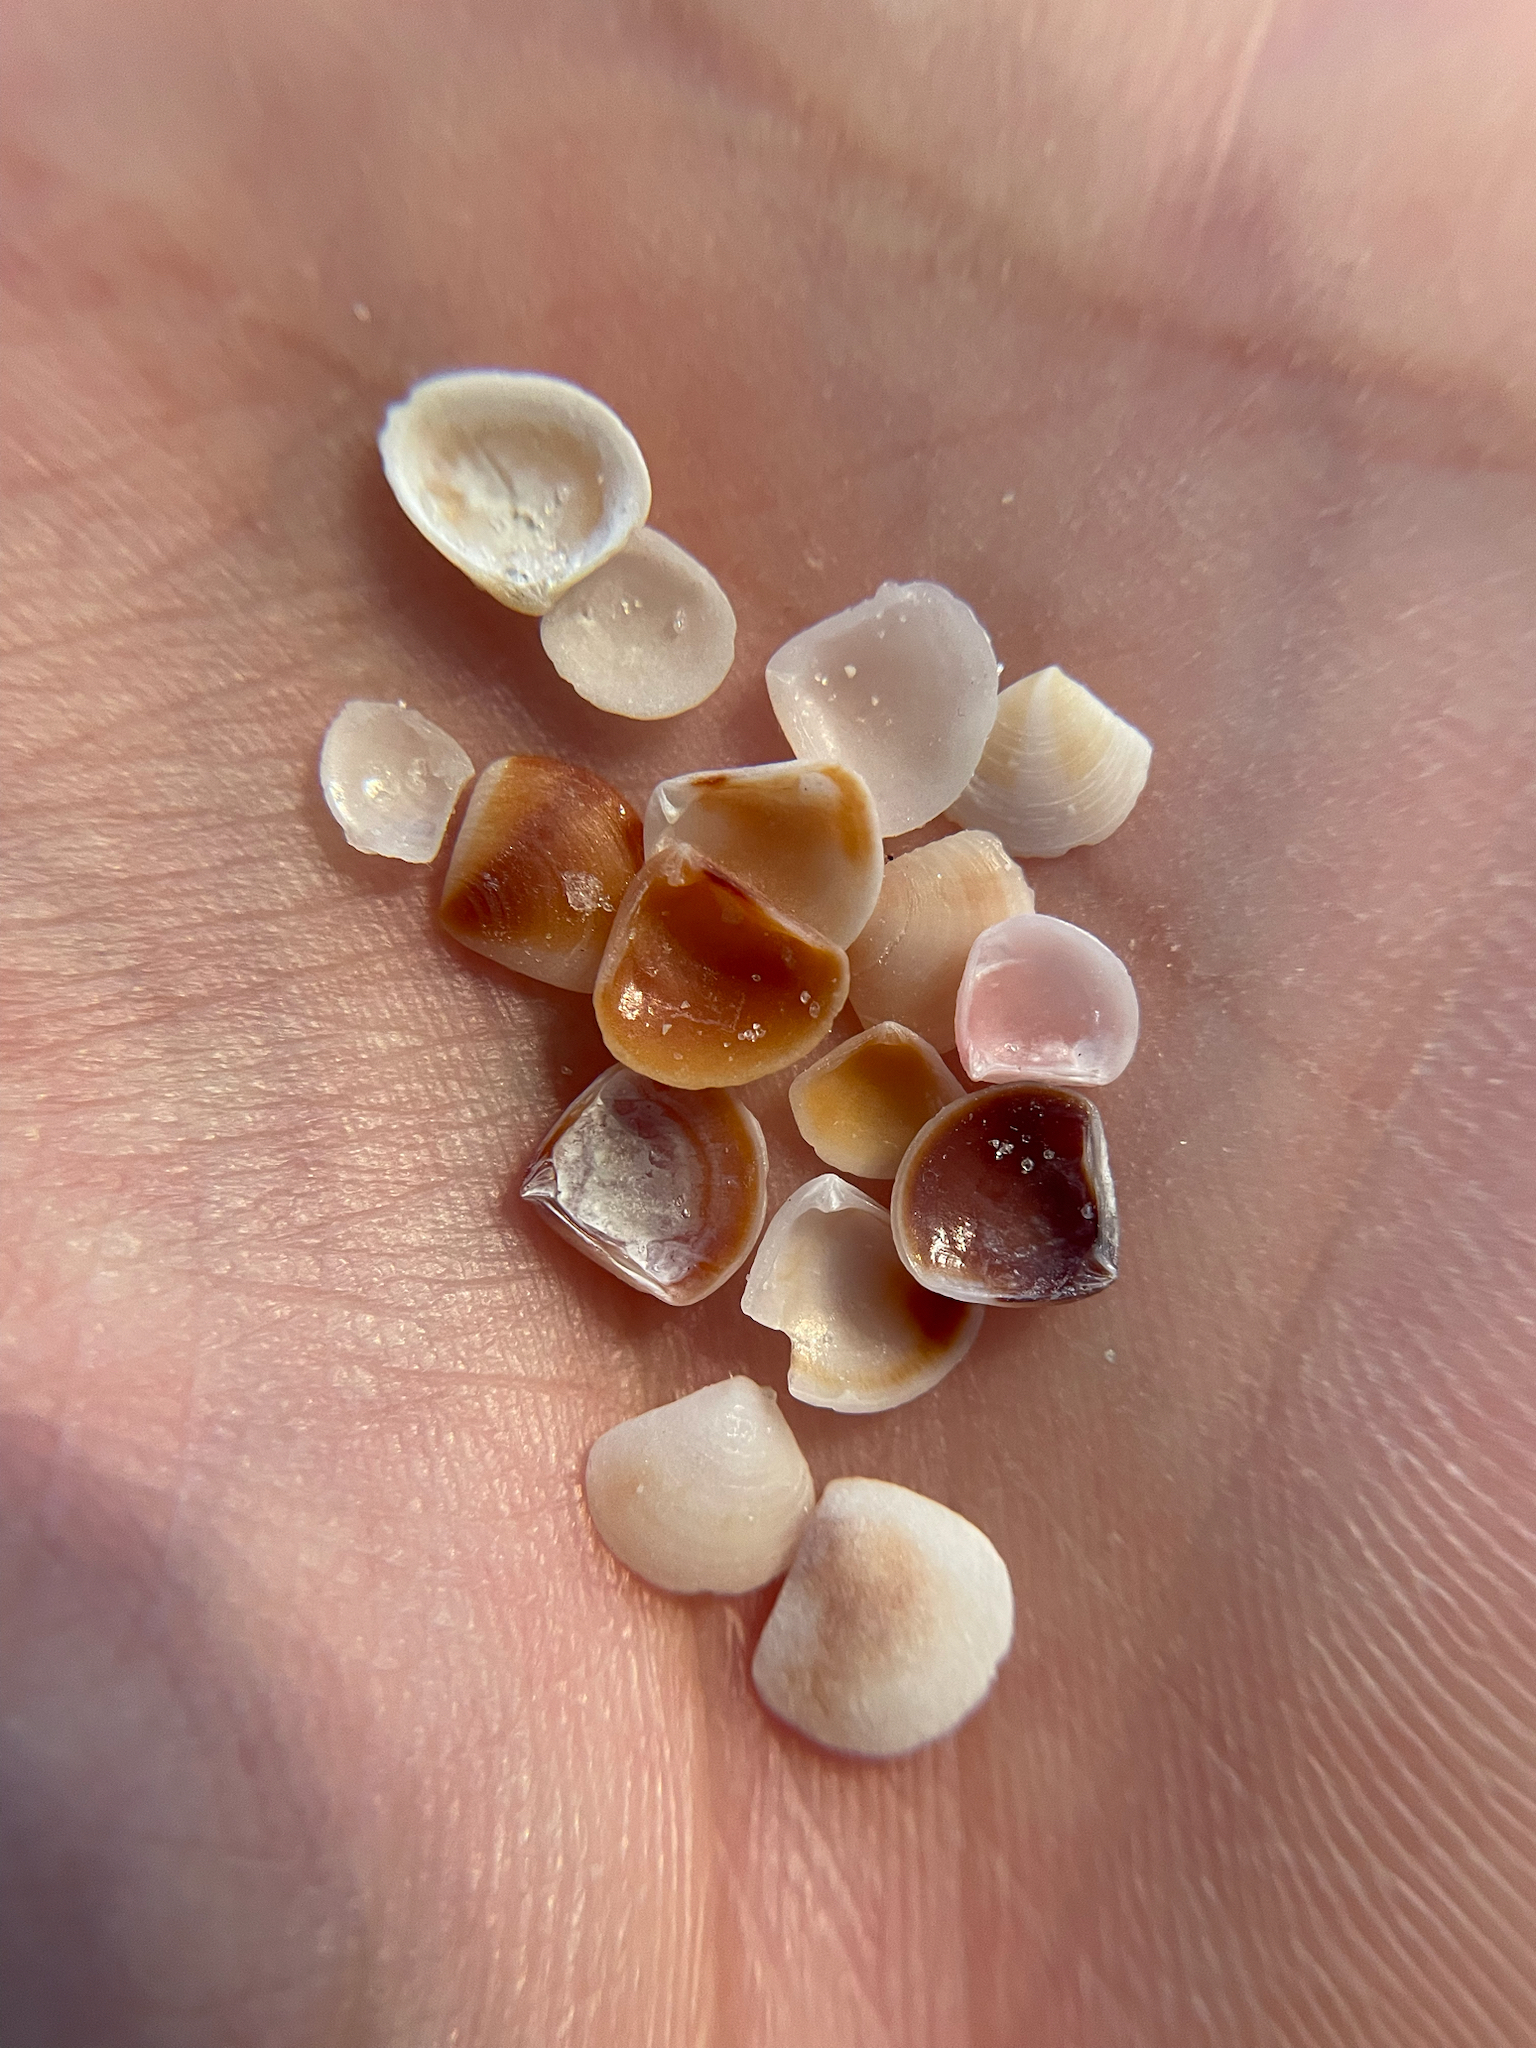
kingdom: Animalia
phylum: Mollusca
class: Bivalvia
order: Carditida
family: Crassatellidae
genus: Crassinella
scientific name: Crassinella lunulata
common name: Lunate crassinella
